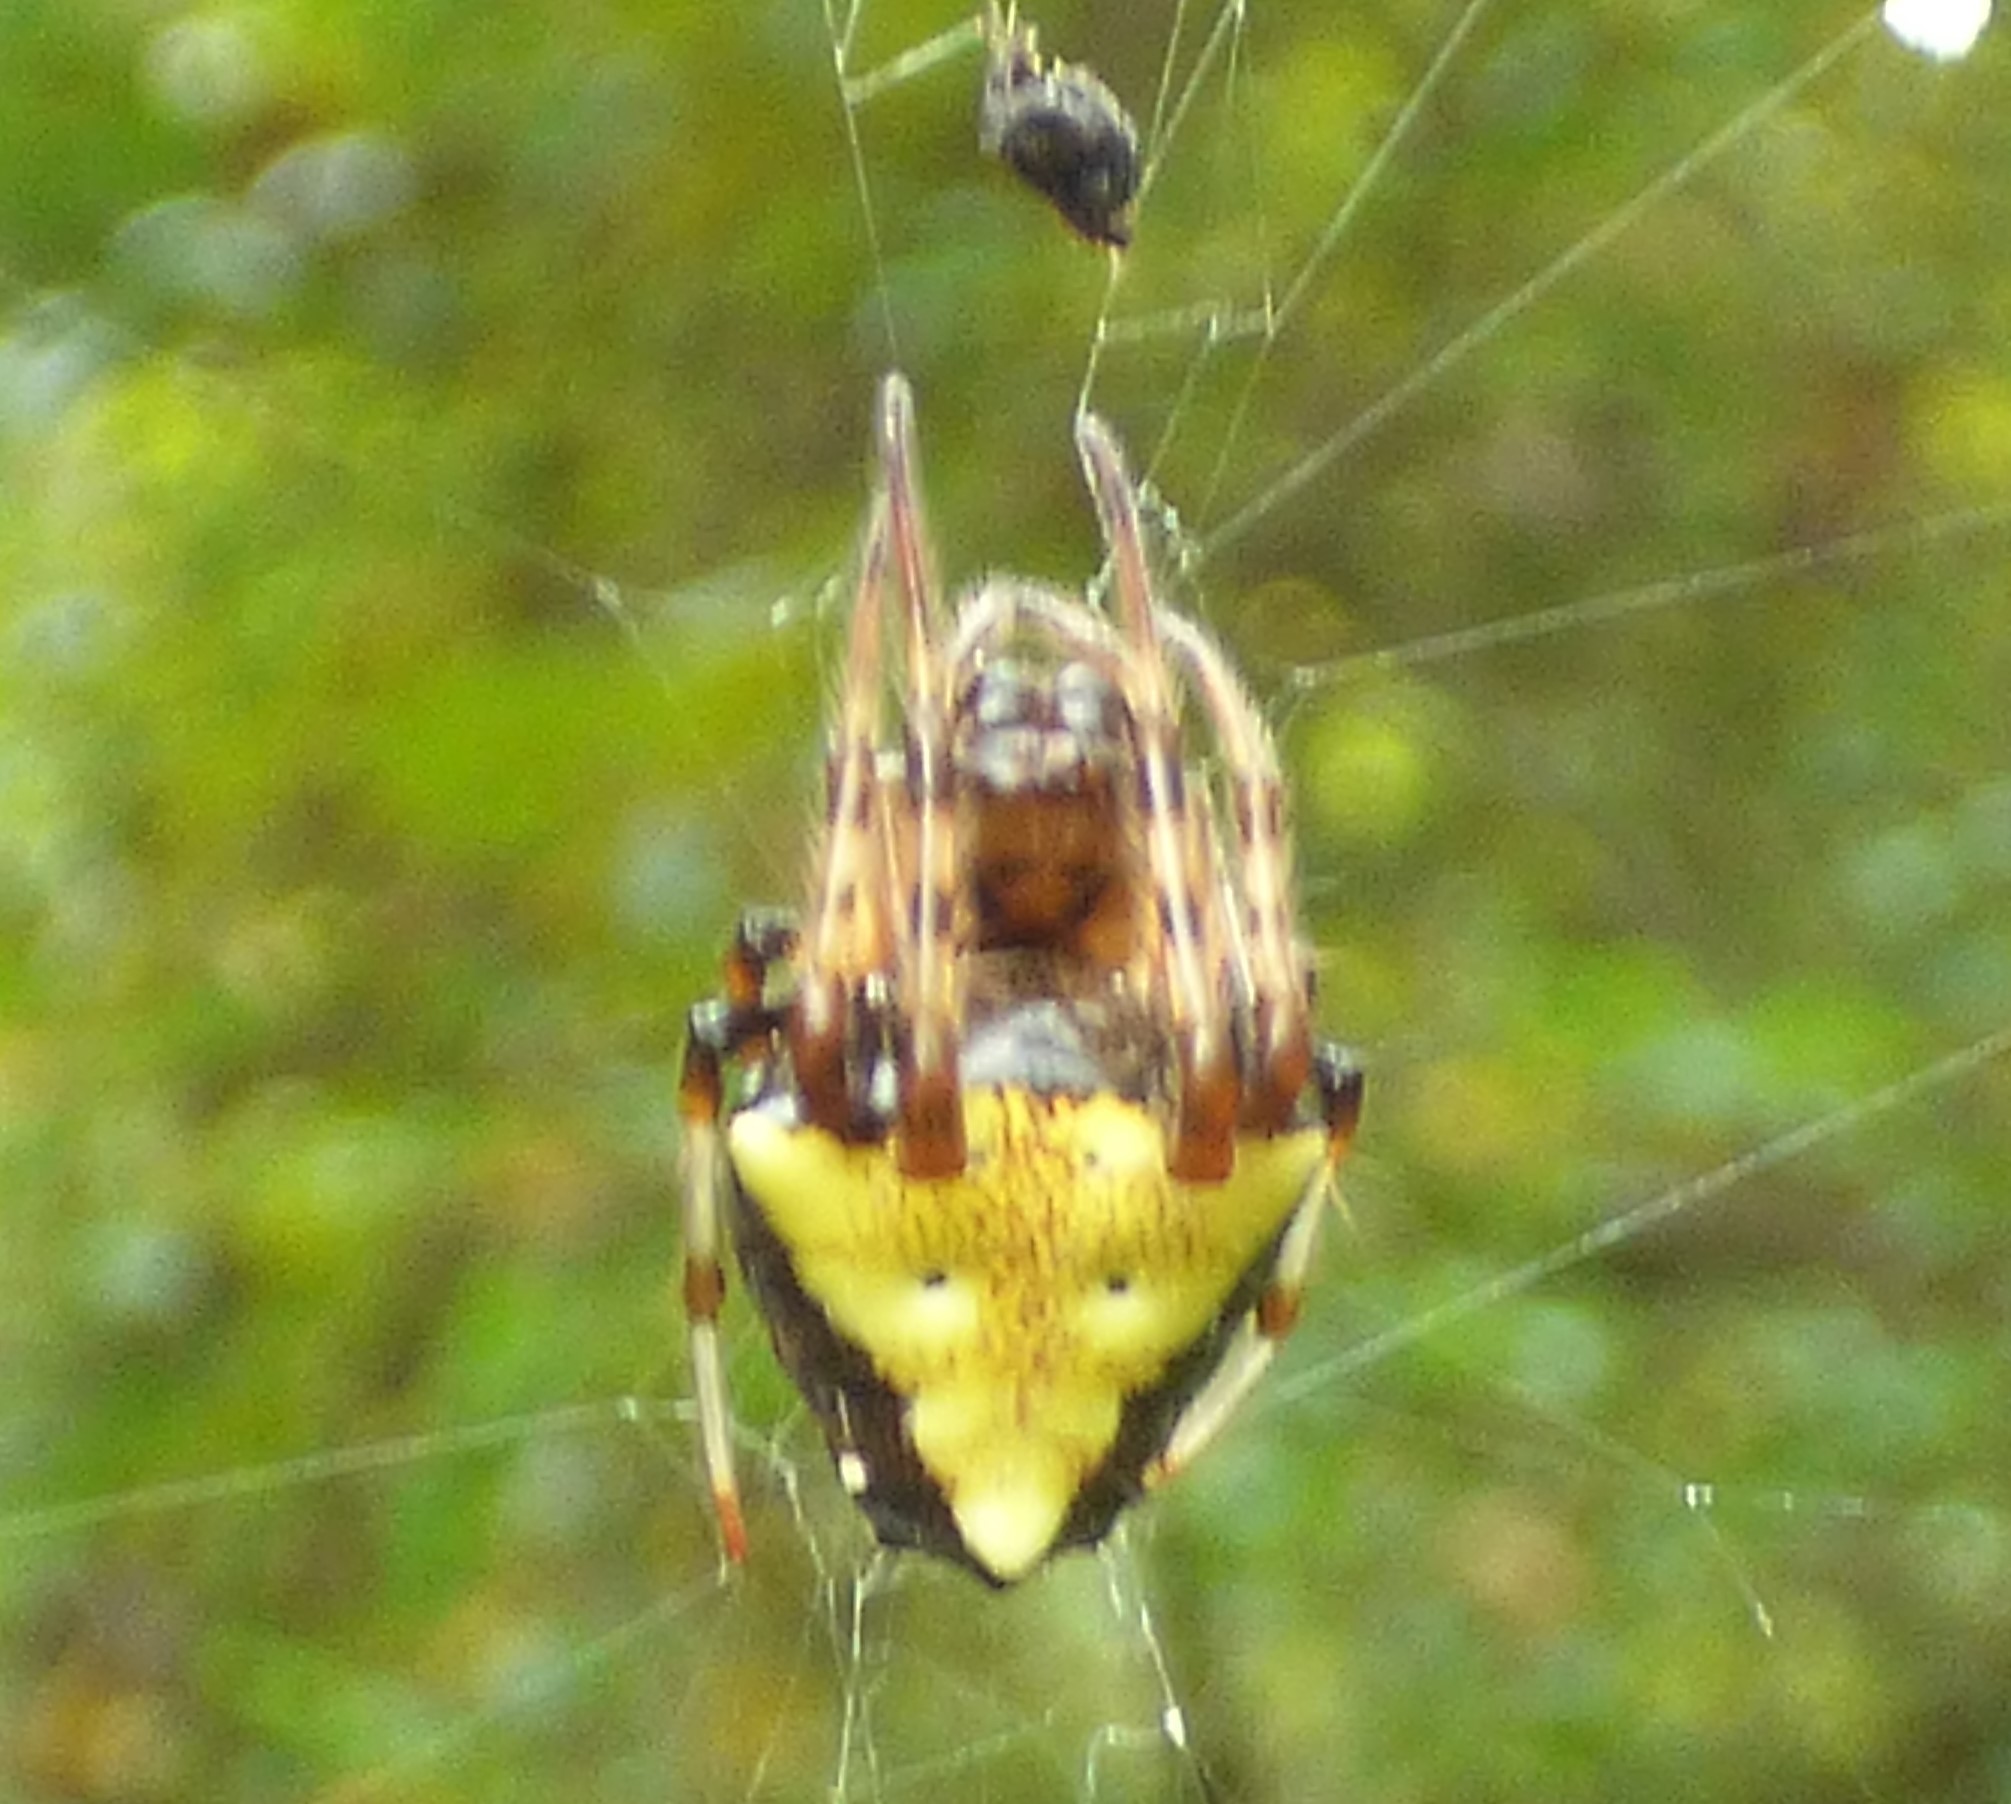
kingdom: Animalia
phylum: Arthropoda
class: Arachnida
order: Araneae
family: Araneidae
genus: Verrucosa
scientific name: Verrucosa arenata
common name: Orb weavers
